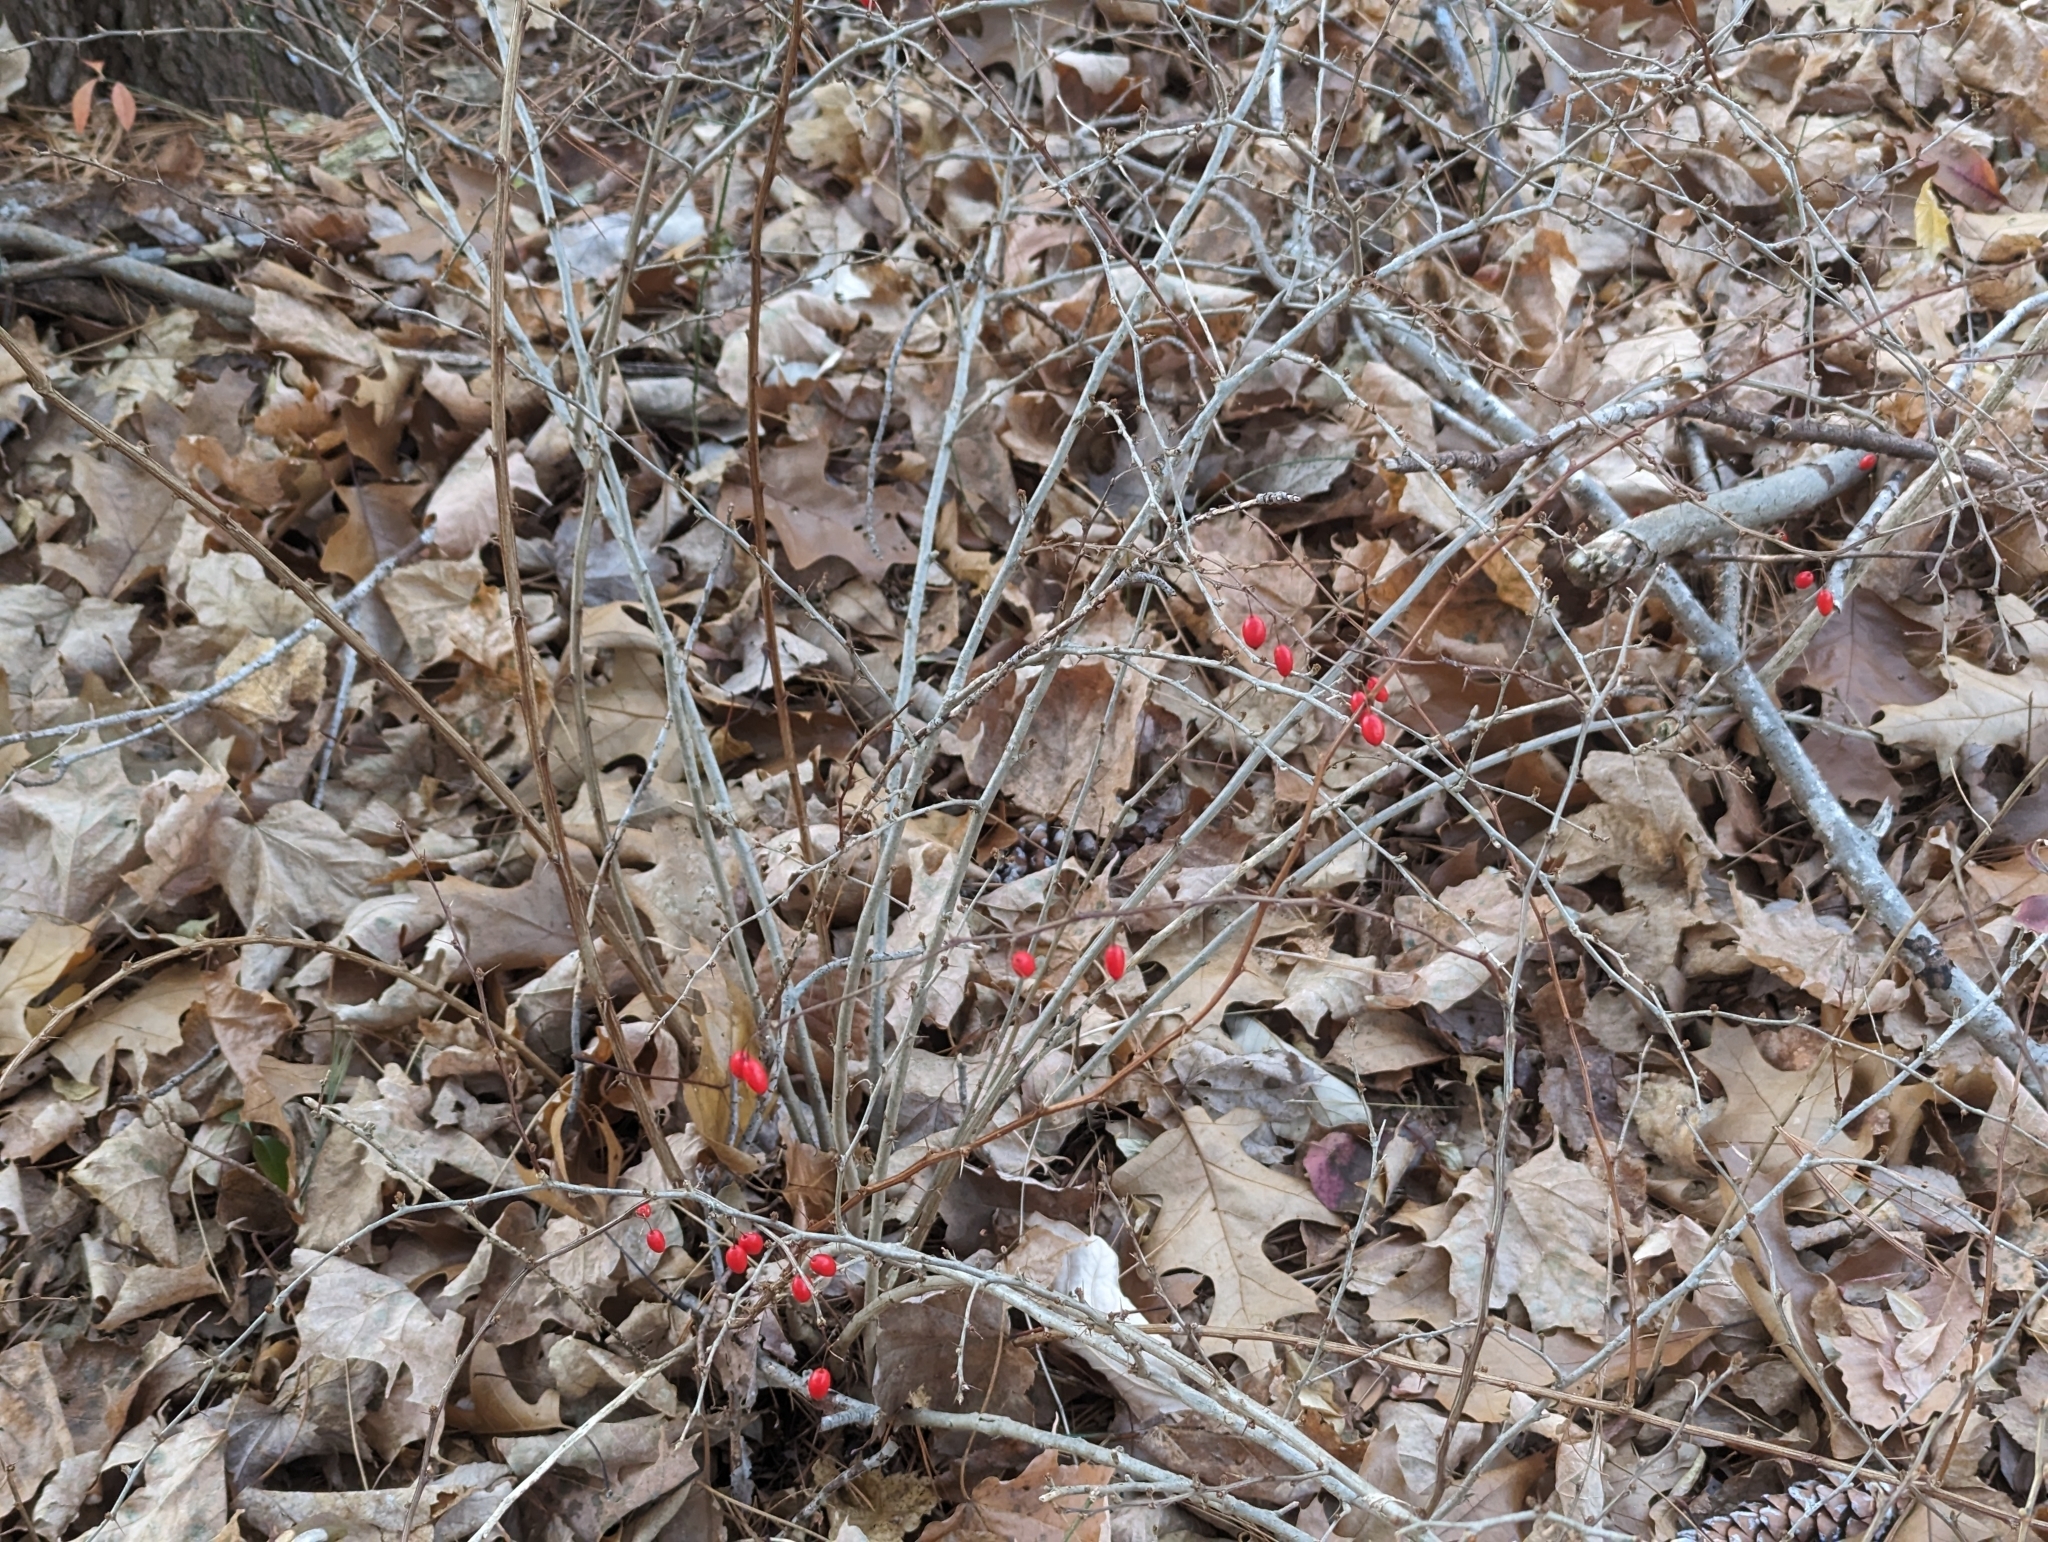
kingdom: Plantae
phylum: Tracheophyta
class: Magnoliopsida
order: Ranunculales
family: Berberidaceae
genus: Berberis
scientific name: Berberis thunbergii
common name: Japanese barberry
